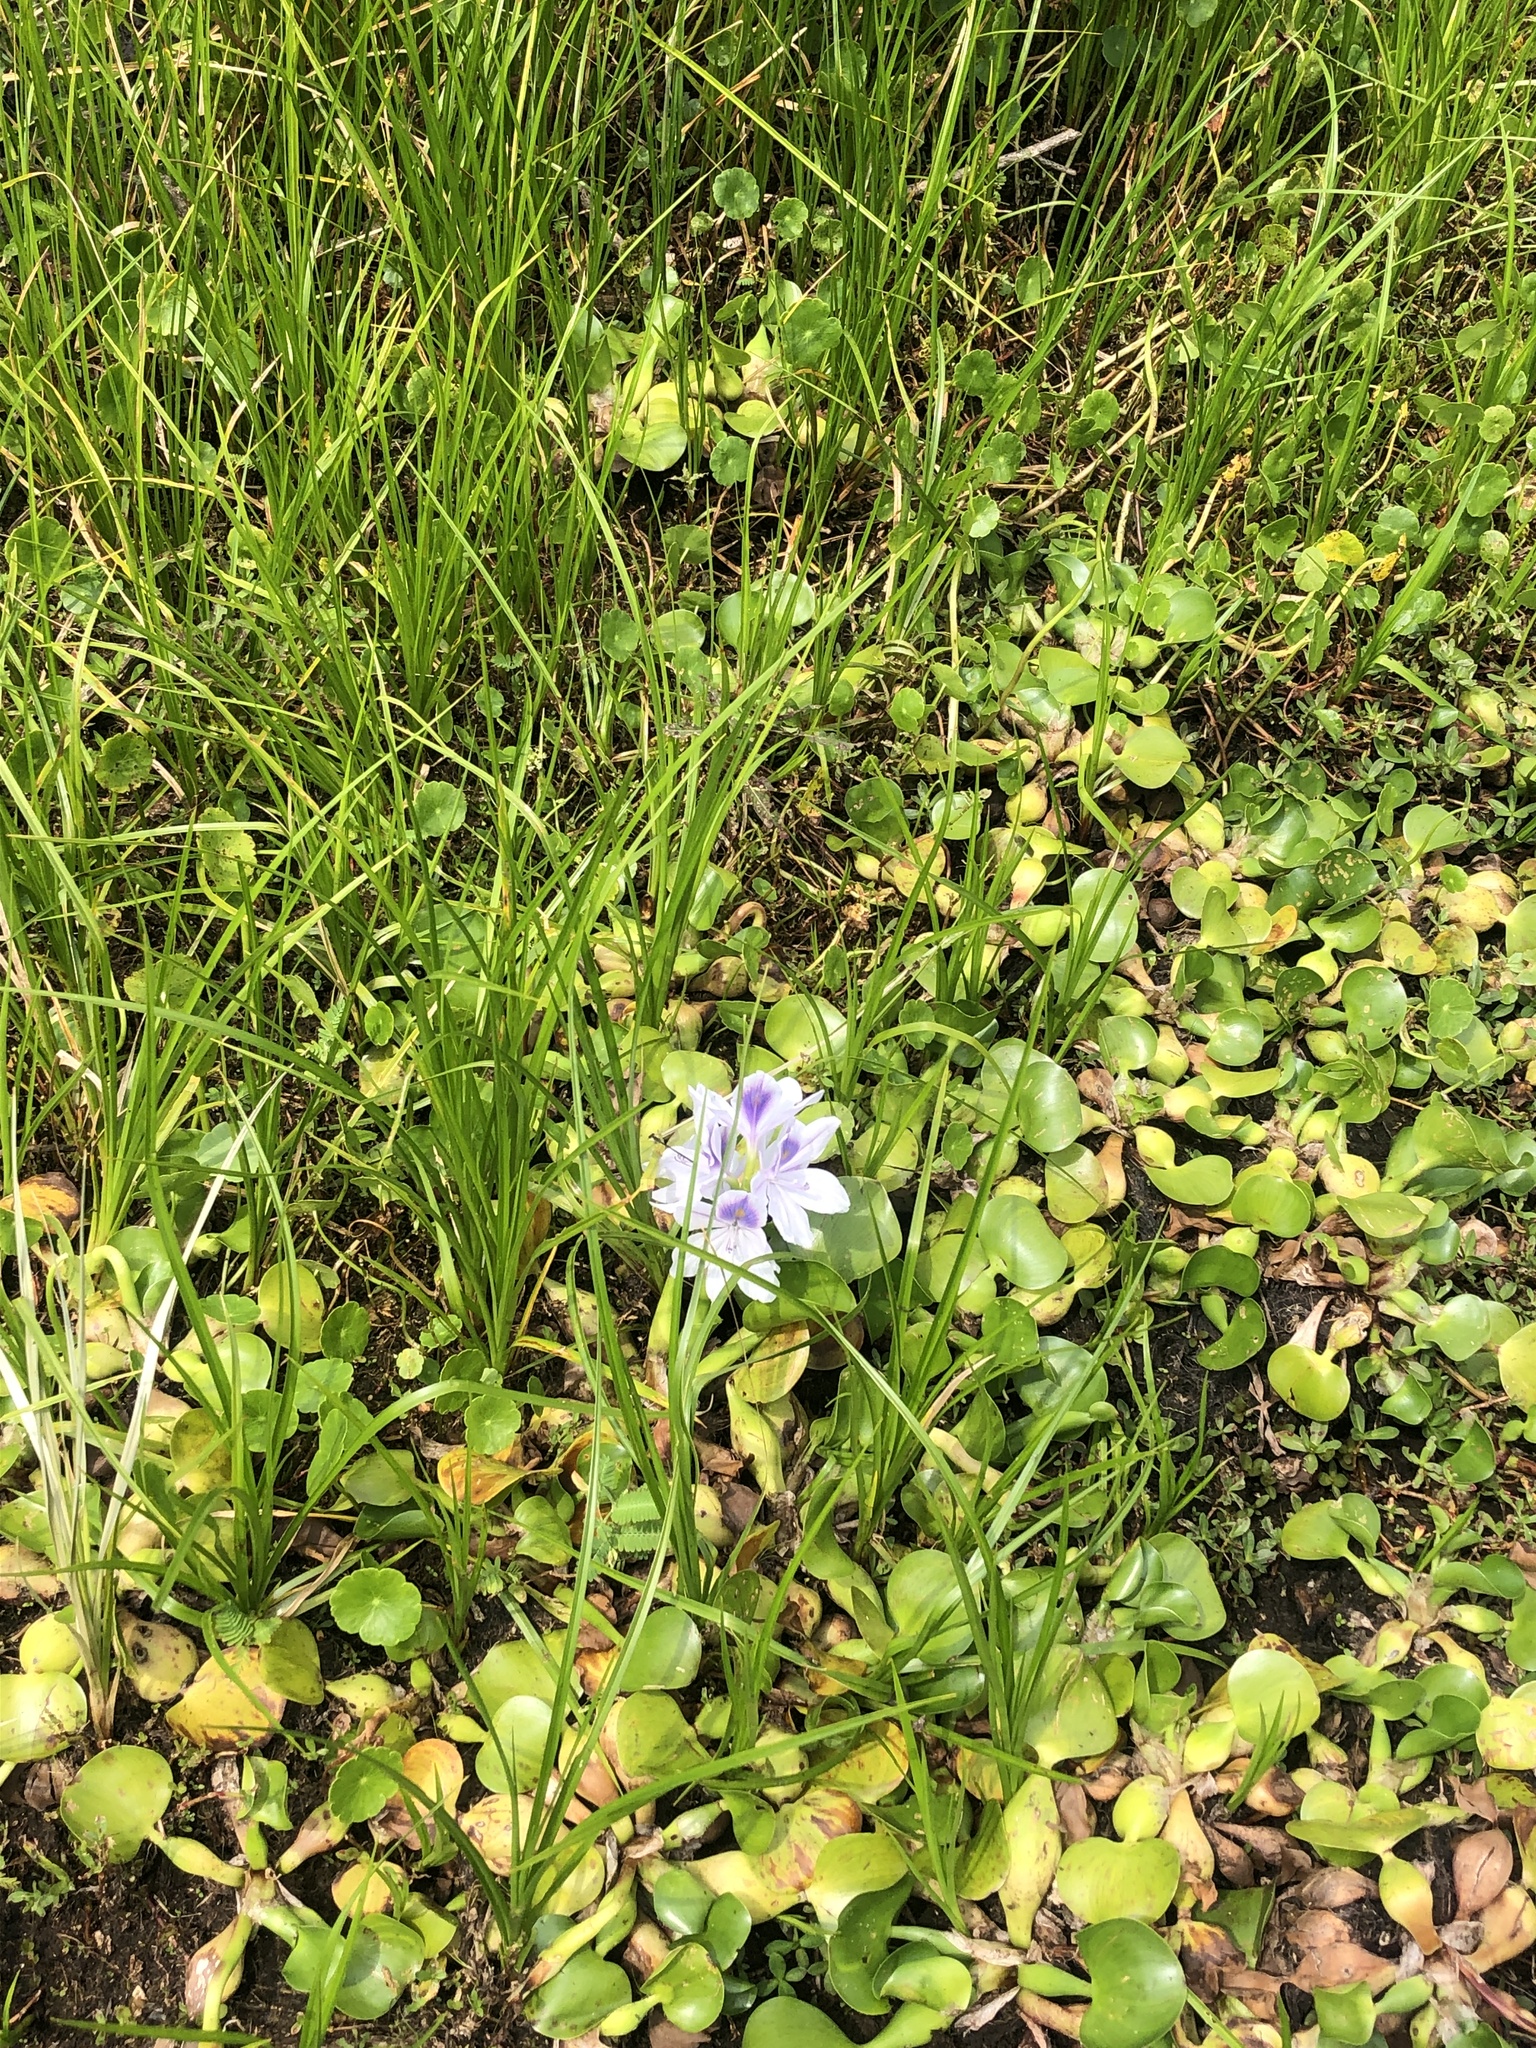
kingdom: Plantae
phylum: Tracheophyta
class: Liliopsida
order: Commelinales
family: Pontederiaceae
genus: Pontederia
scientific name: Pontederia crassipes
